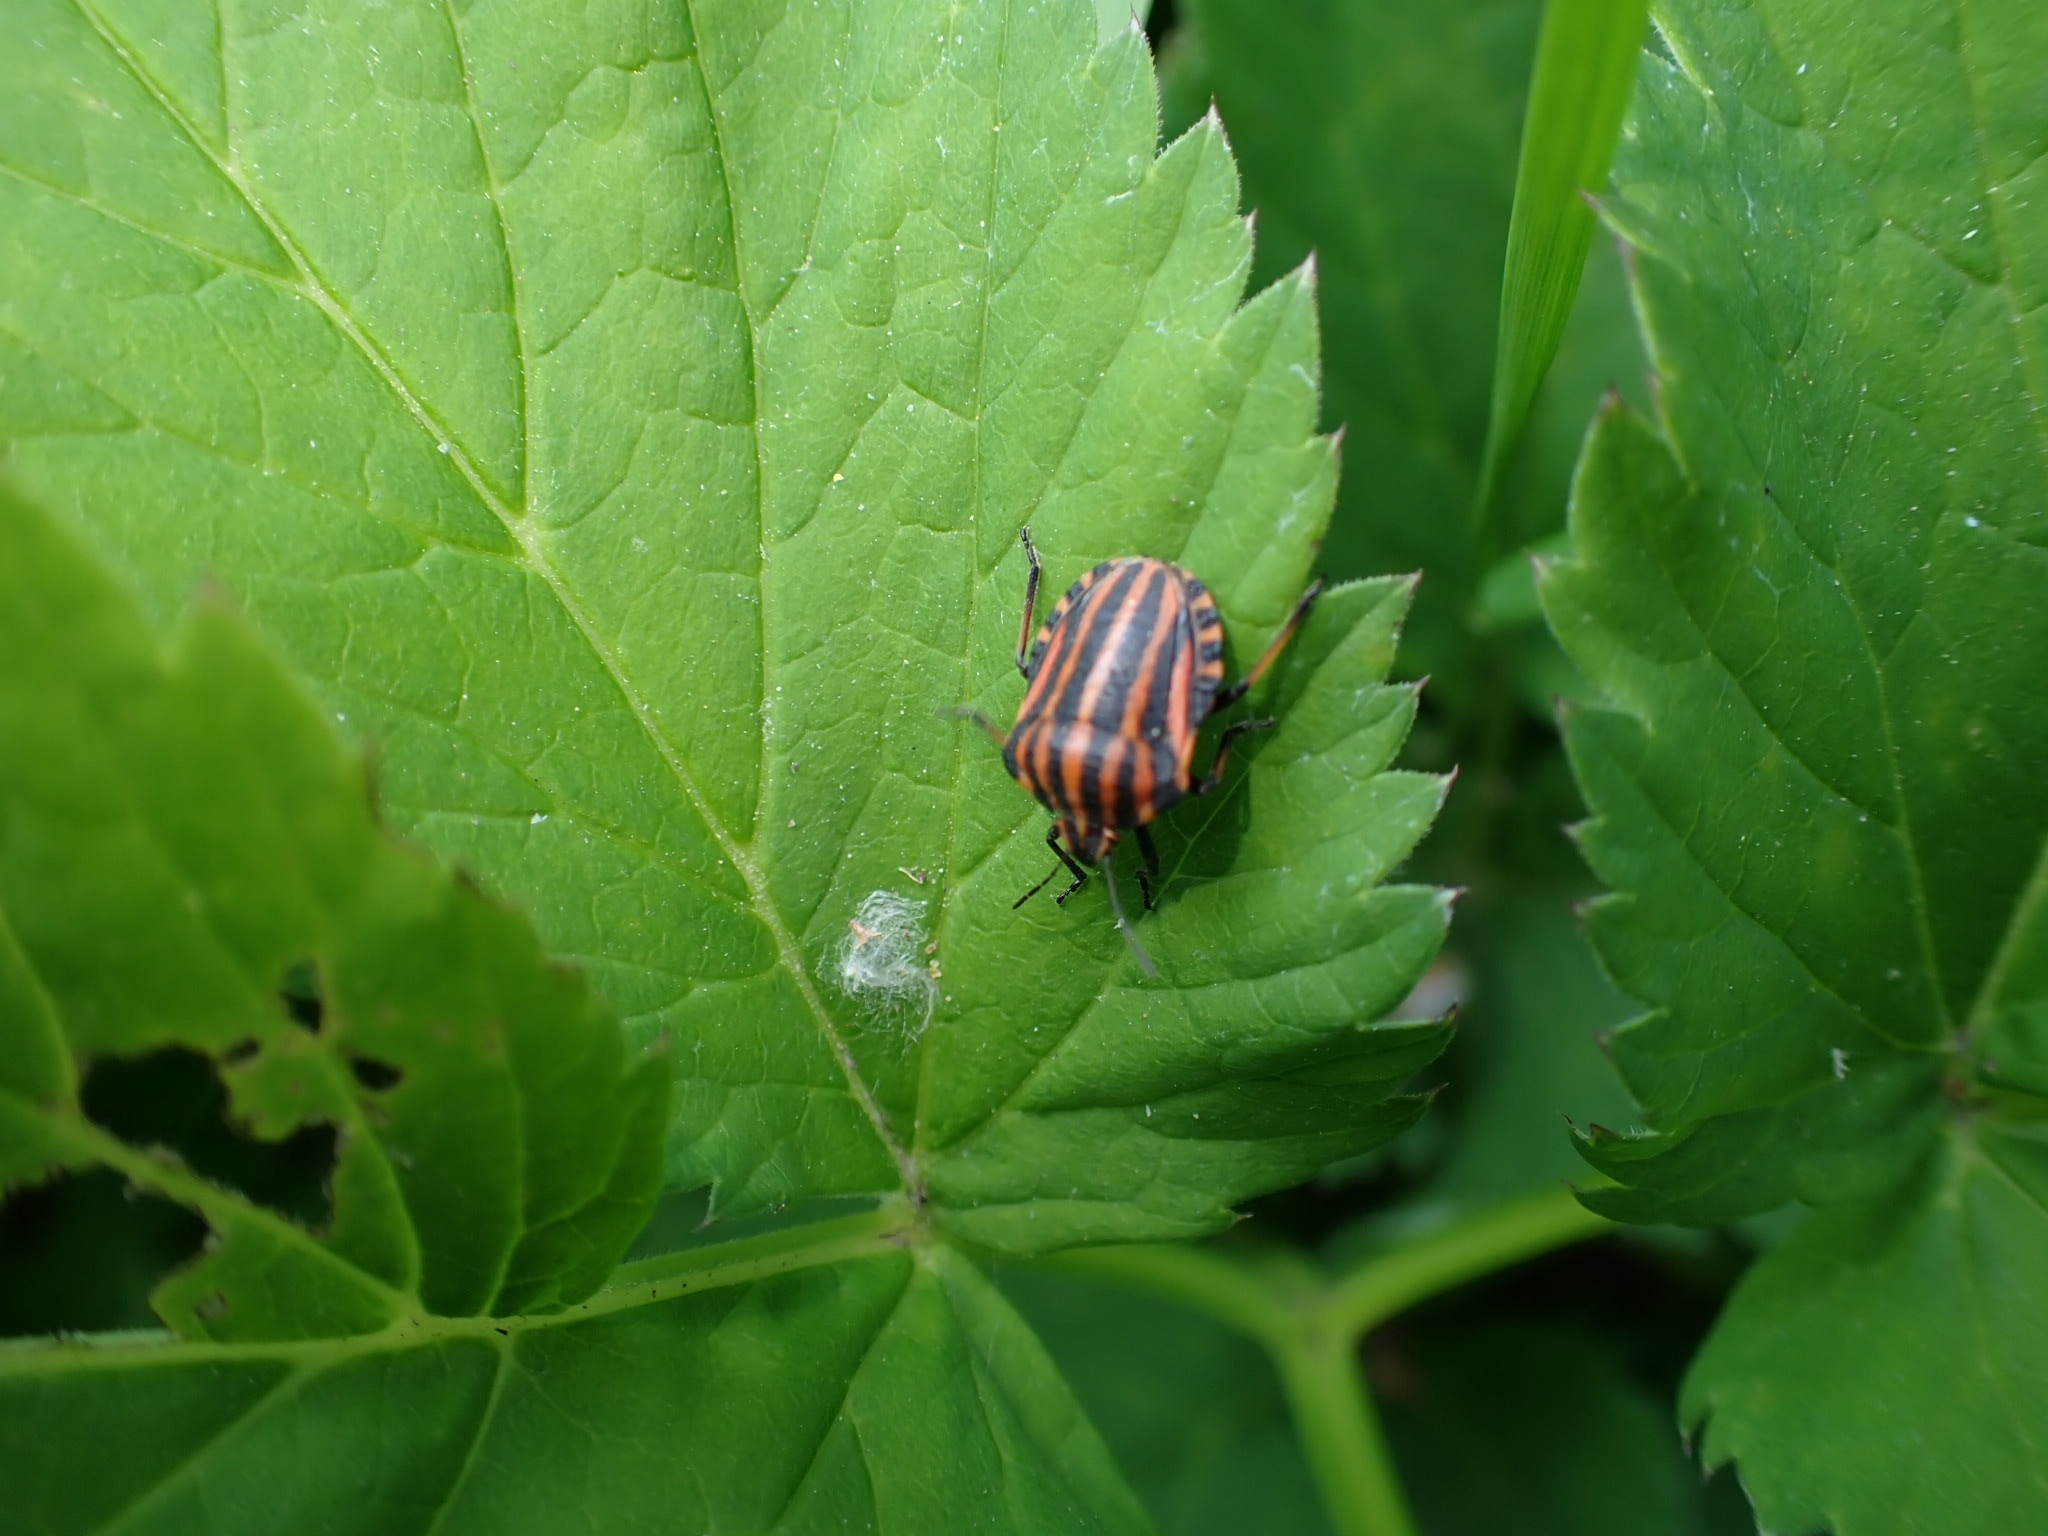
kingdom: Animalia
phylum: Arthropoda
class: Insecta
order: Hemiptera
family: Pentatomidae
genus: Graphosoma
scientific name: Graphosoma italicum
